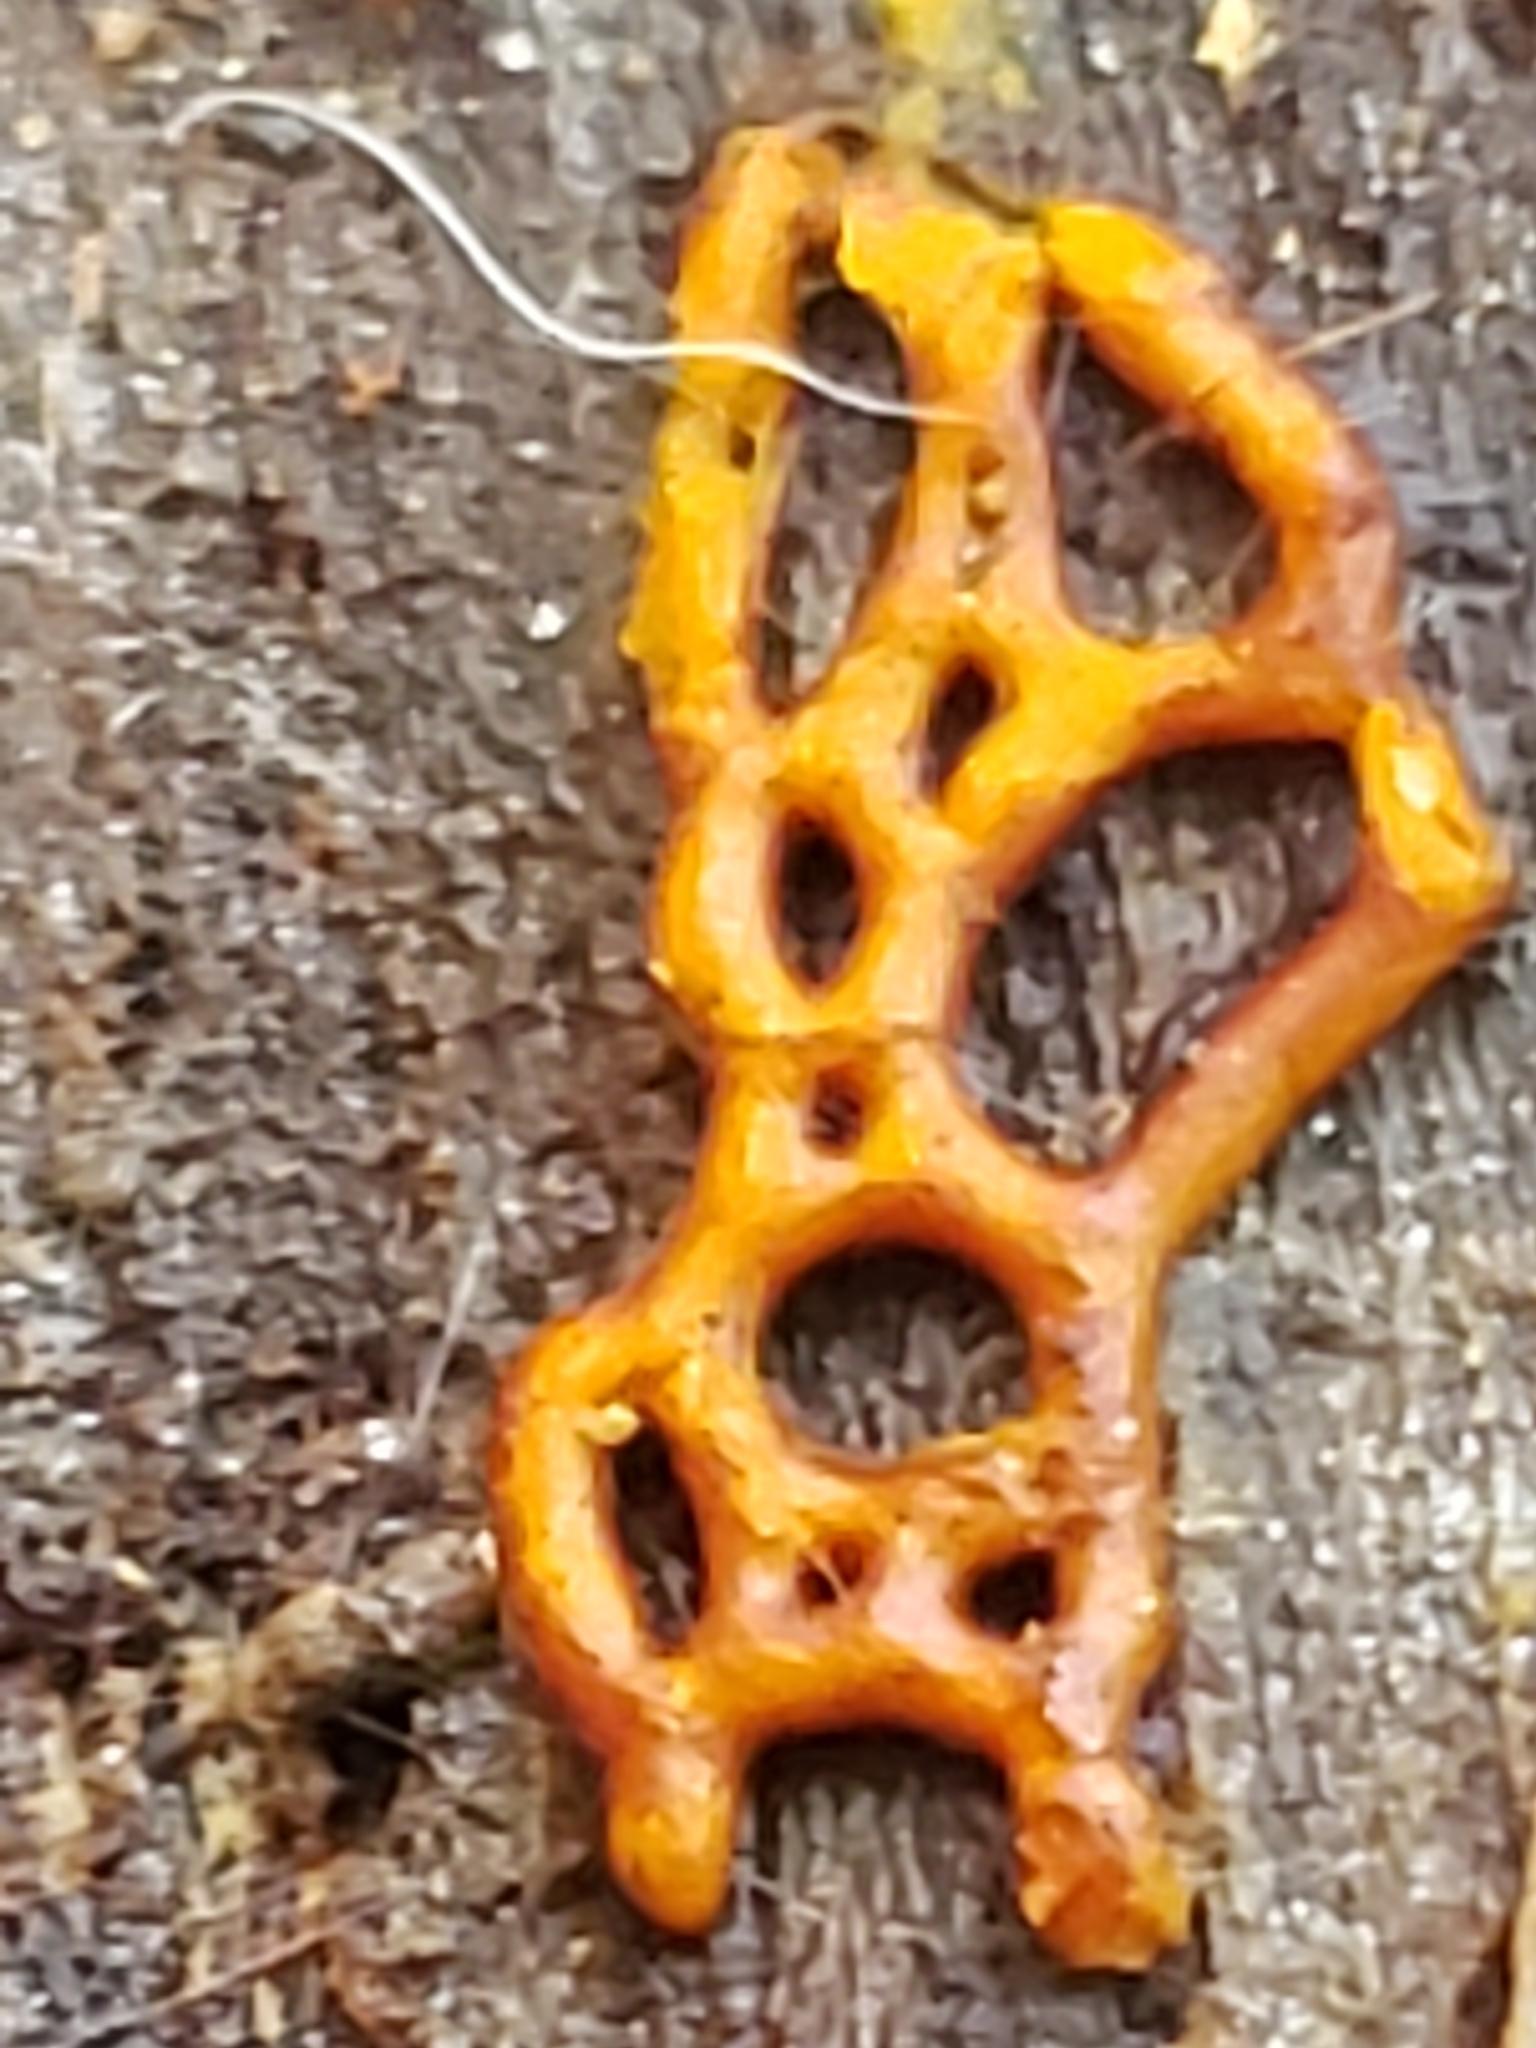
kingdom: Protozoa
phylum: Mycetozoa
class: Myxomycetes
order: Trichiales
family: Arcyriaceae
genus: Hemitrichia
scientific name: Hemitrichia serpula
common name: Pretzel slime mold
